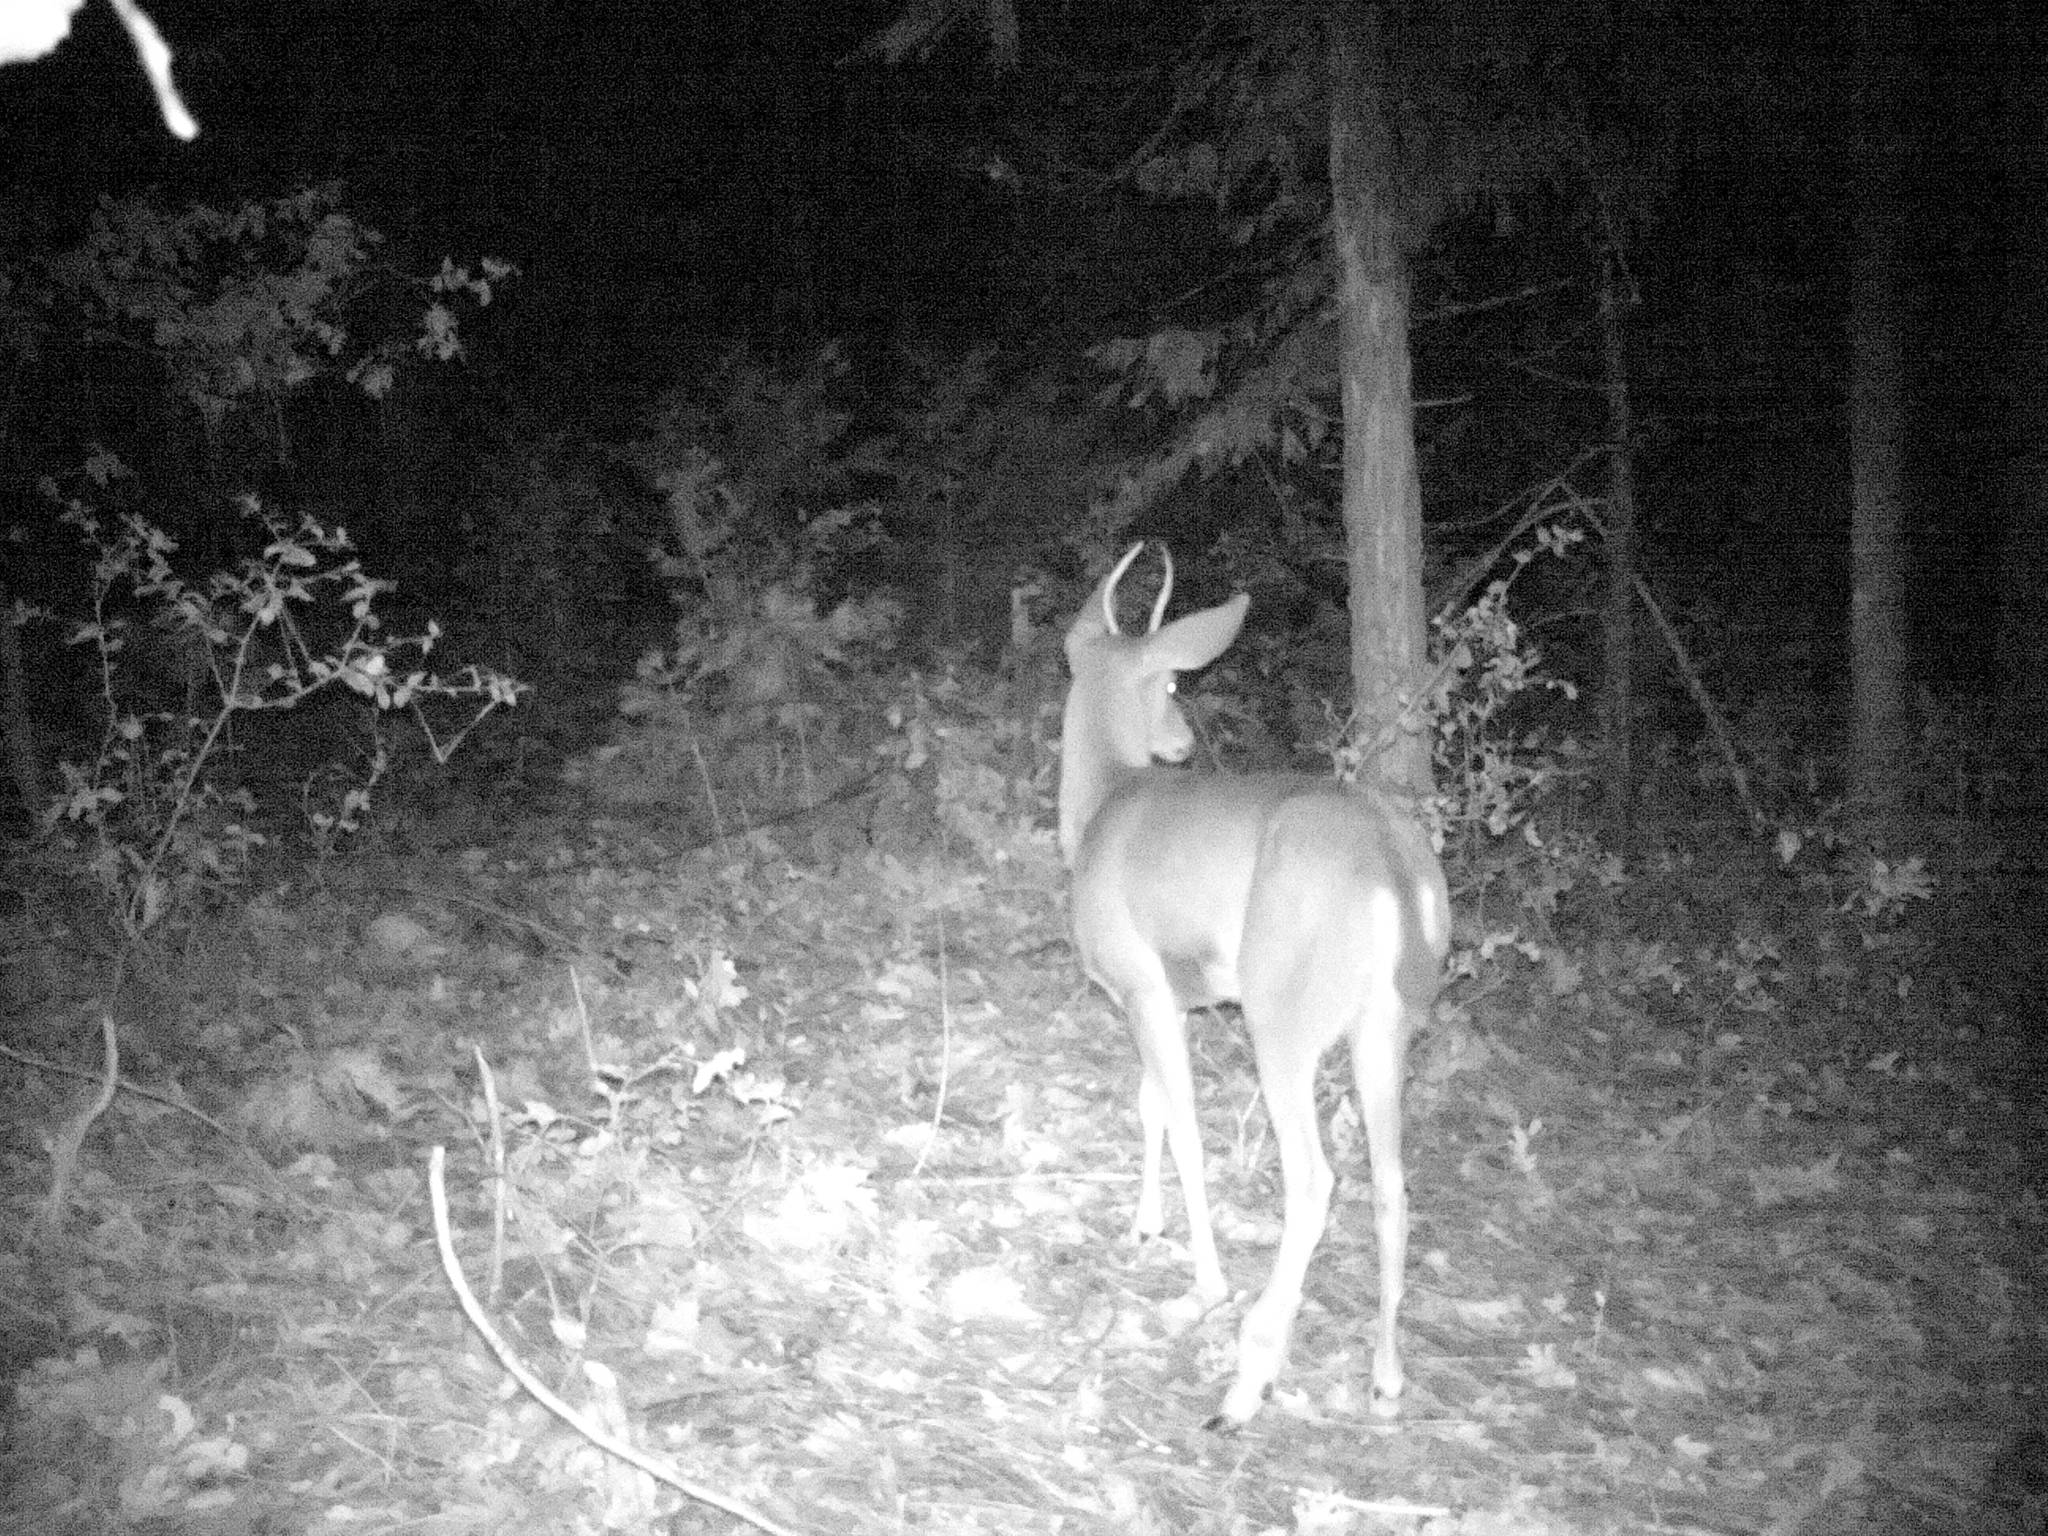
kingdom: Animalia
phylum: Chordata
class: Mammalia
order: Artiodactyla
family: Cervidae
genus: Odocoileus
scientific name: Odocoileus hemionus
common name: Mule deer
